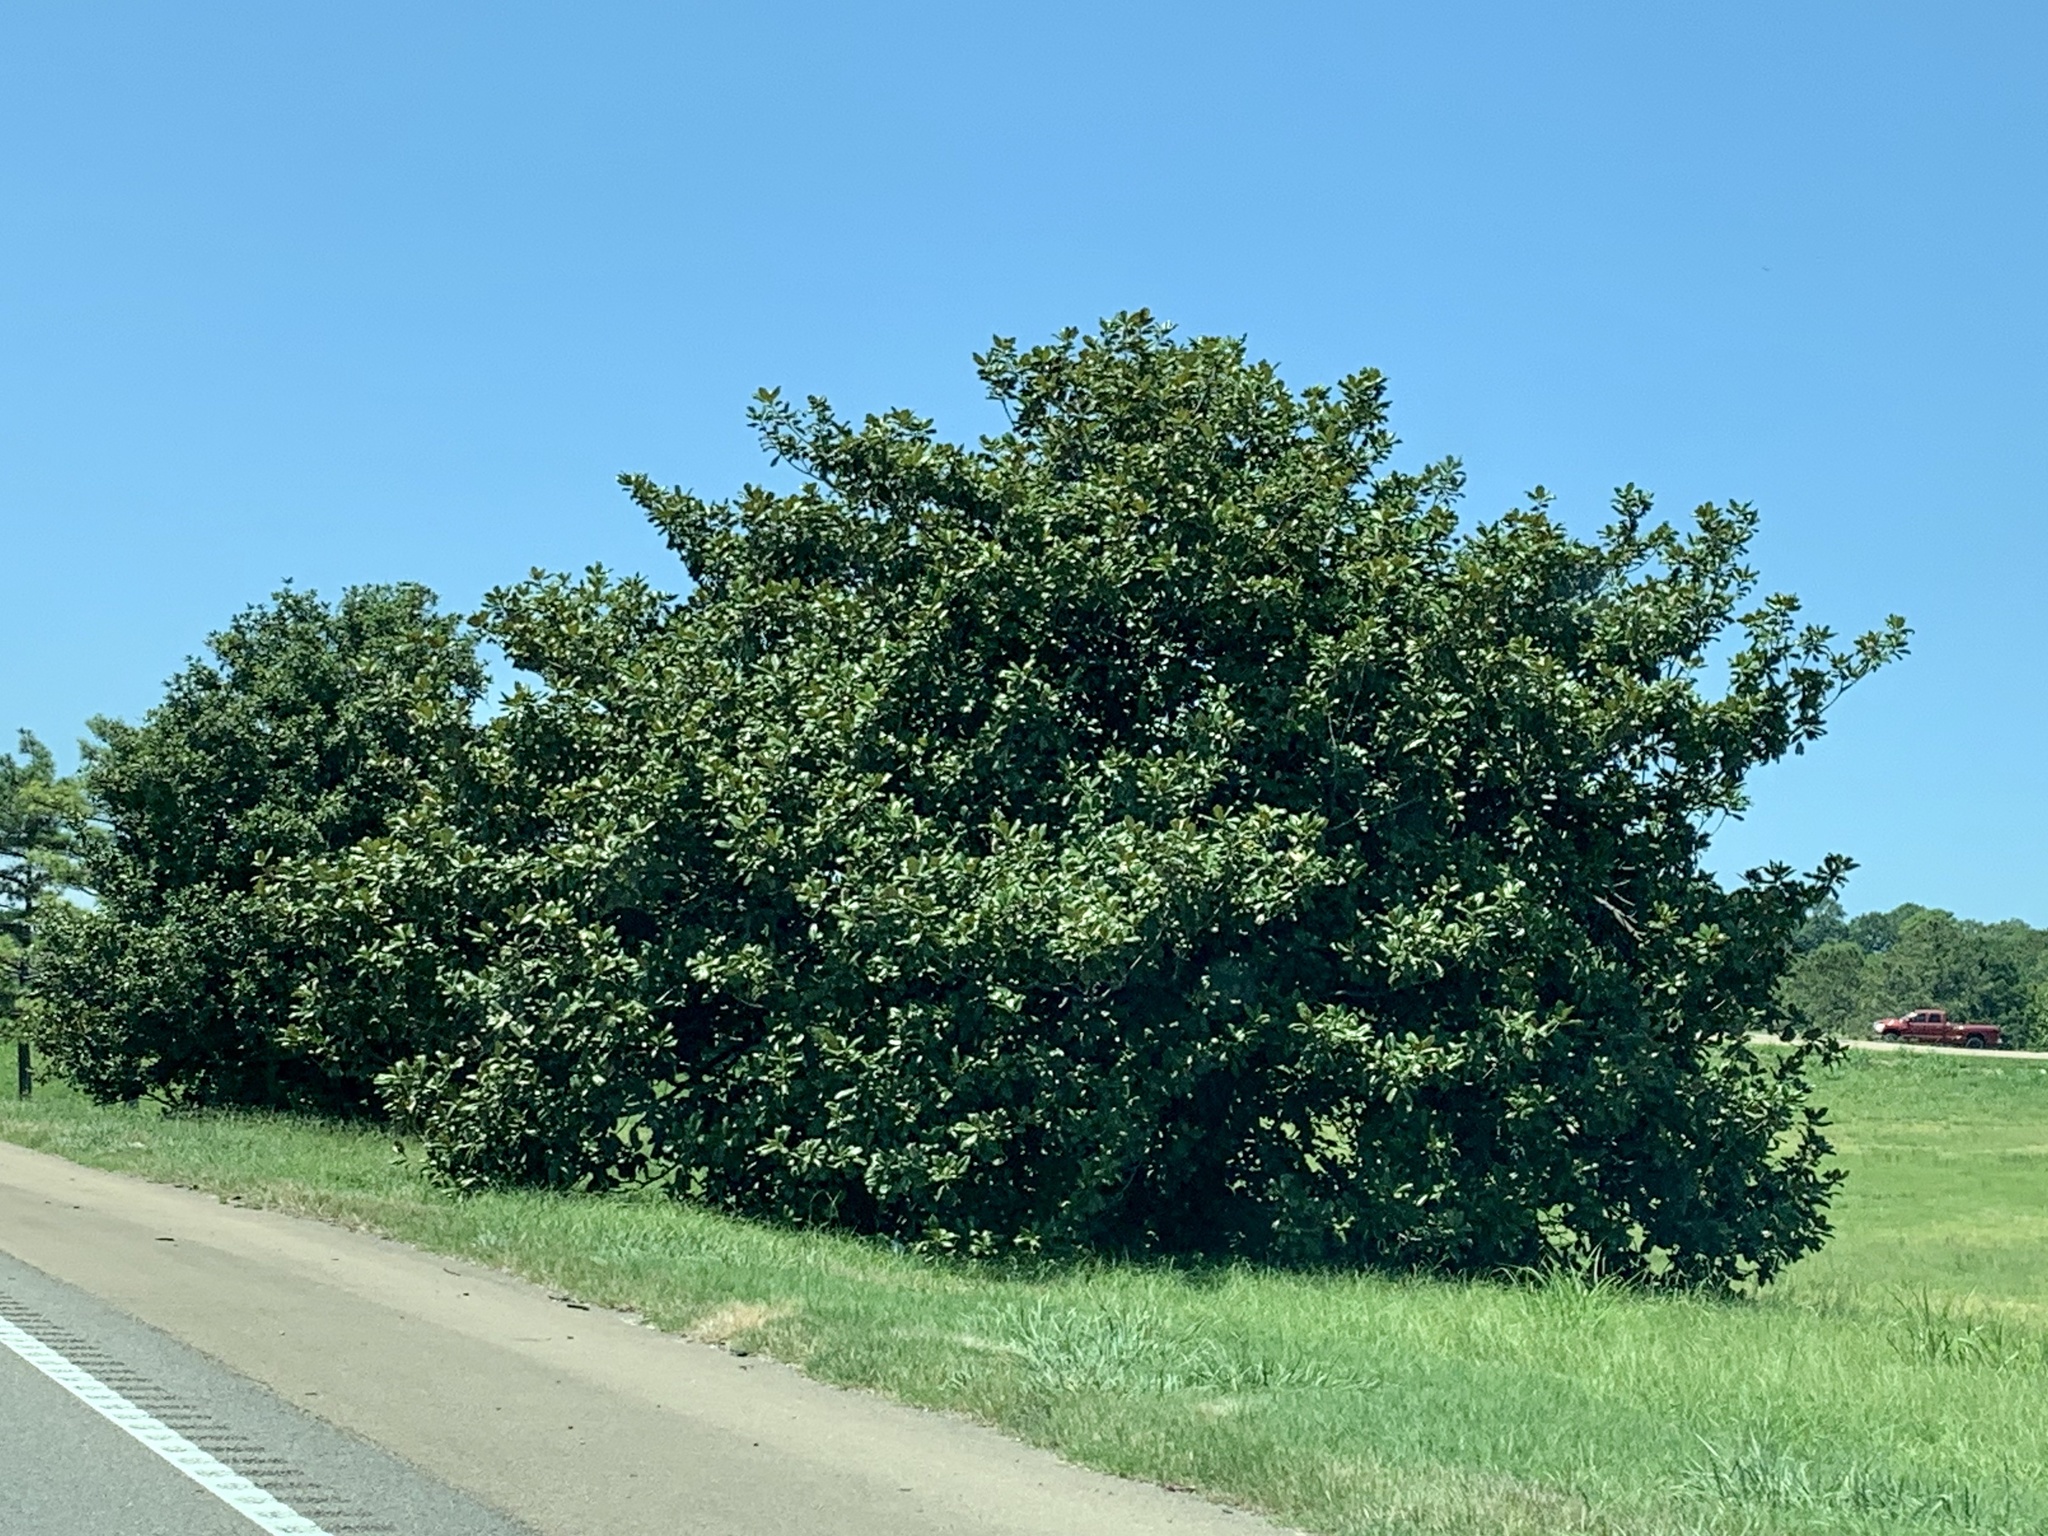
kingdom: Plantae
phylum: Tracheophyta
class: Magnoliopsida
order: Magnoliales
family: Magnoliaceae
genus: Magnolia
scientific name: Magnolia grandiflora
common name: Southern magnolia
